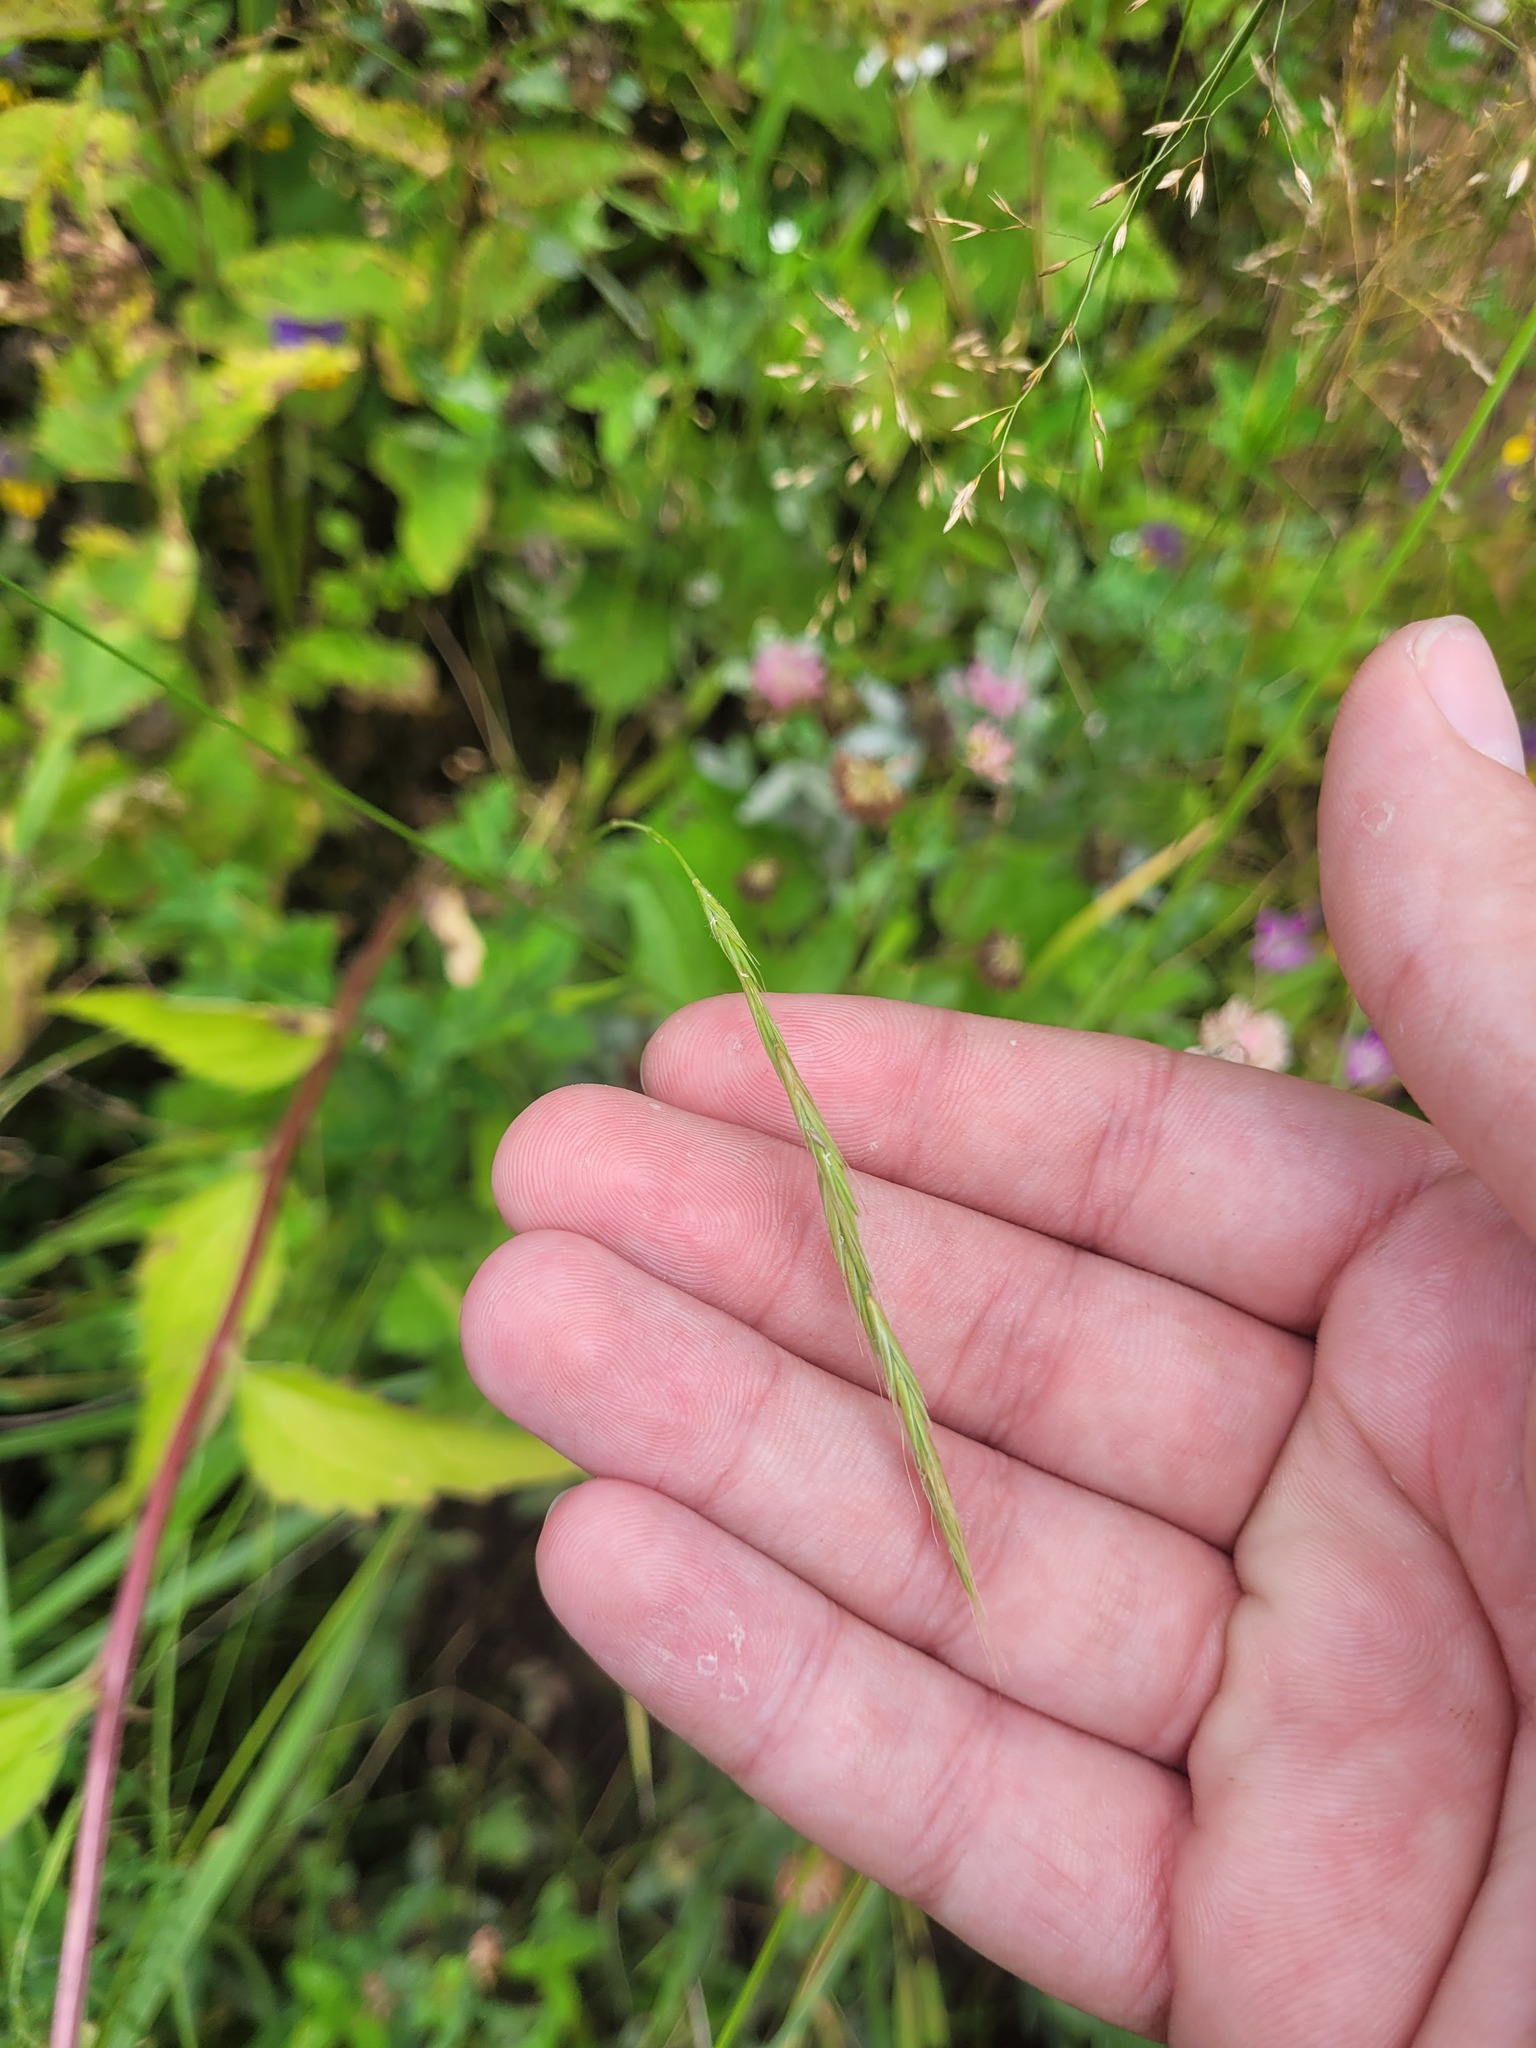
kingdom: Plantae
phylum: Tracheophyta
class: Liliopsida
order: Poales
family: Poaceae
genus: Brachypodium
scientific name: Brachypodium sylvaticum
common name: False-brome
